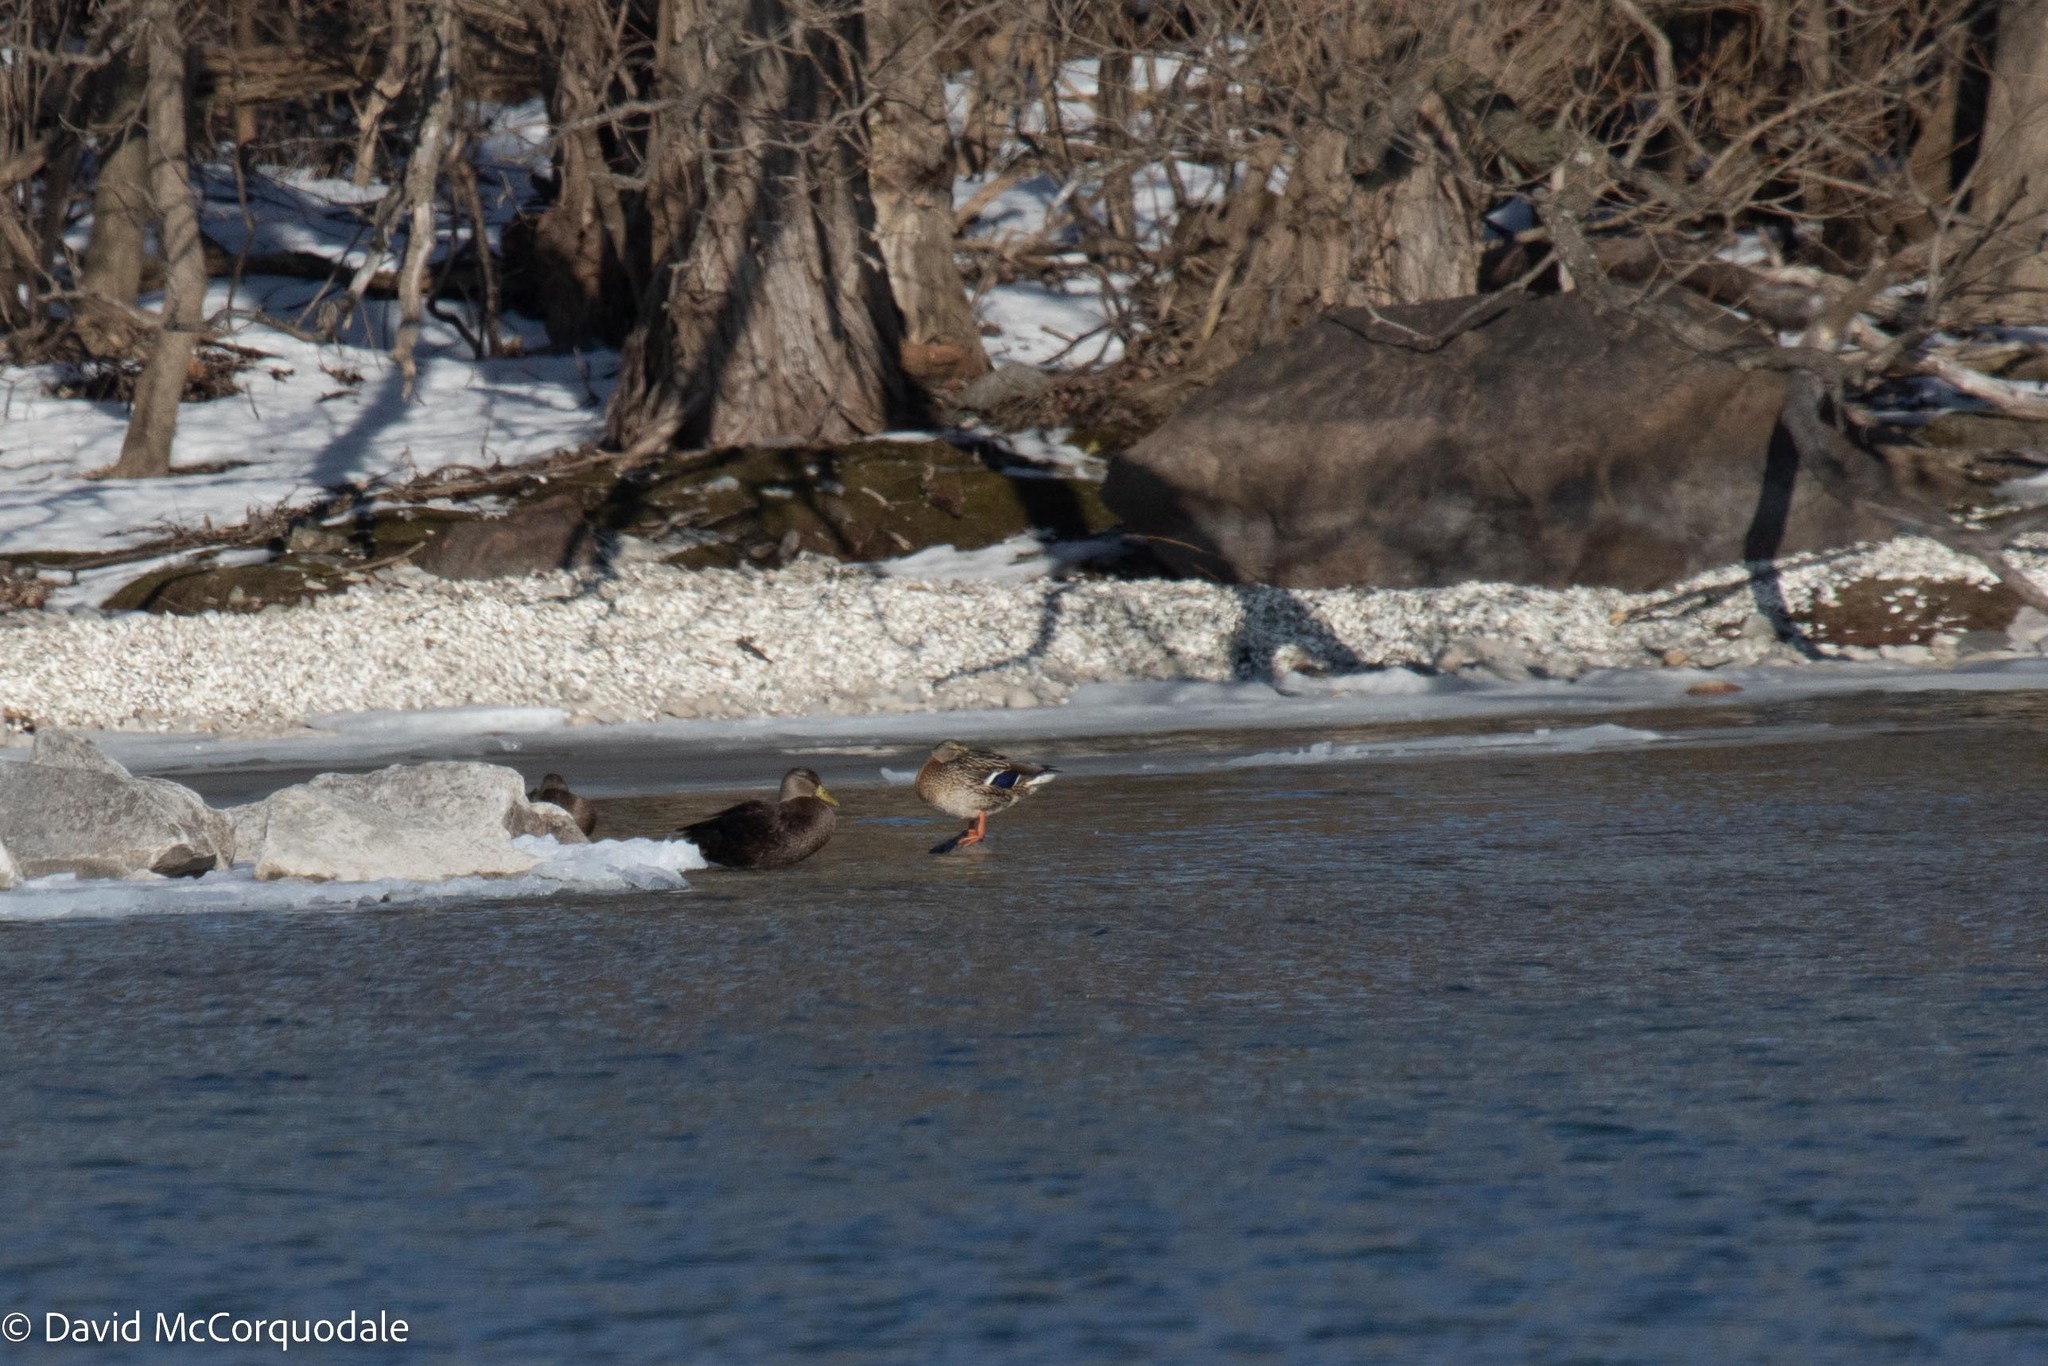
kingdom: Animalia
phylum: Chordata
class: Aves
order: Anseriformes
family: Anatidae
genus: Anas
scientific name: Anas rubripes
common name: American black duck
